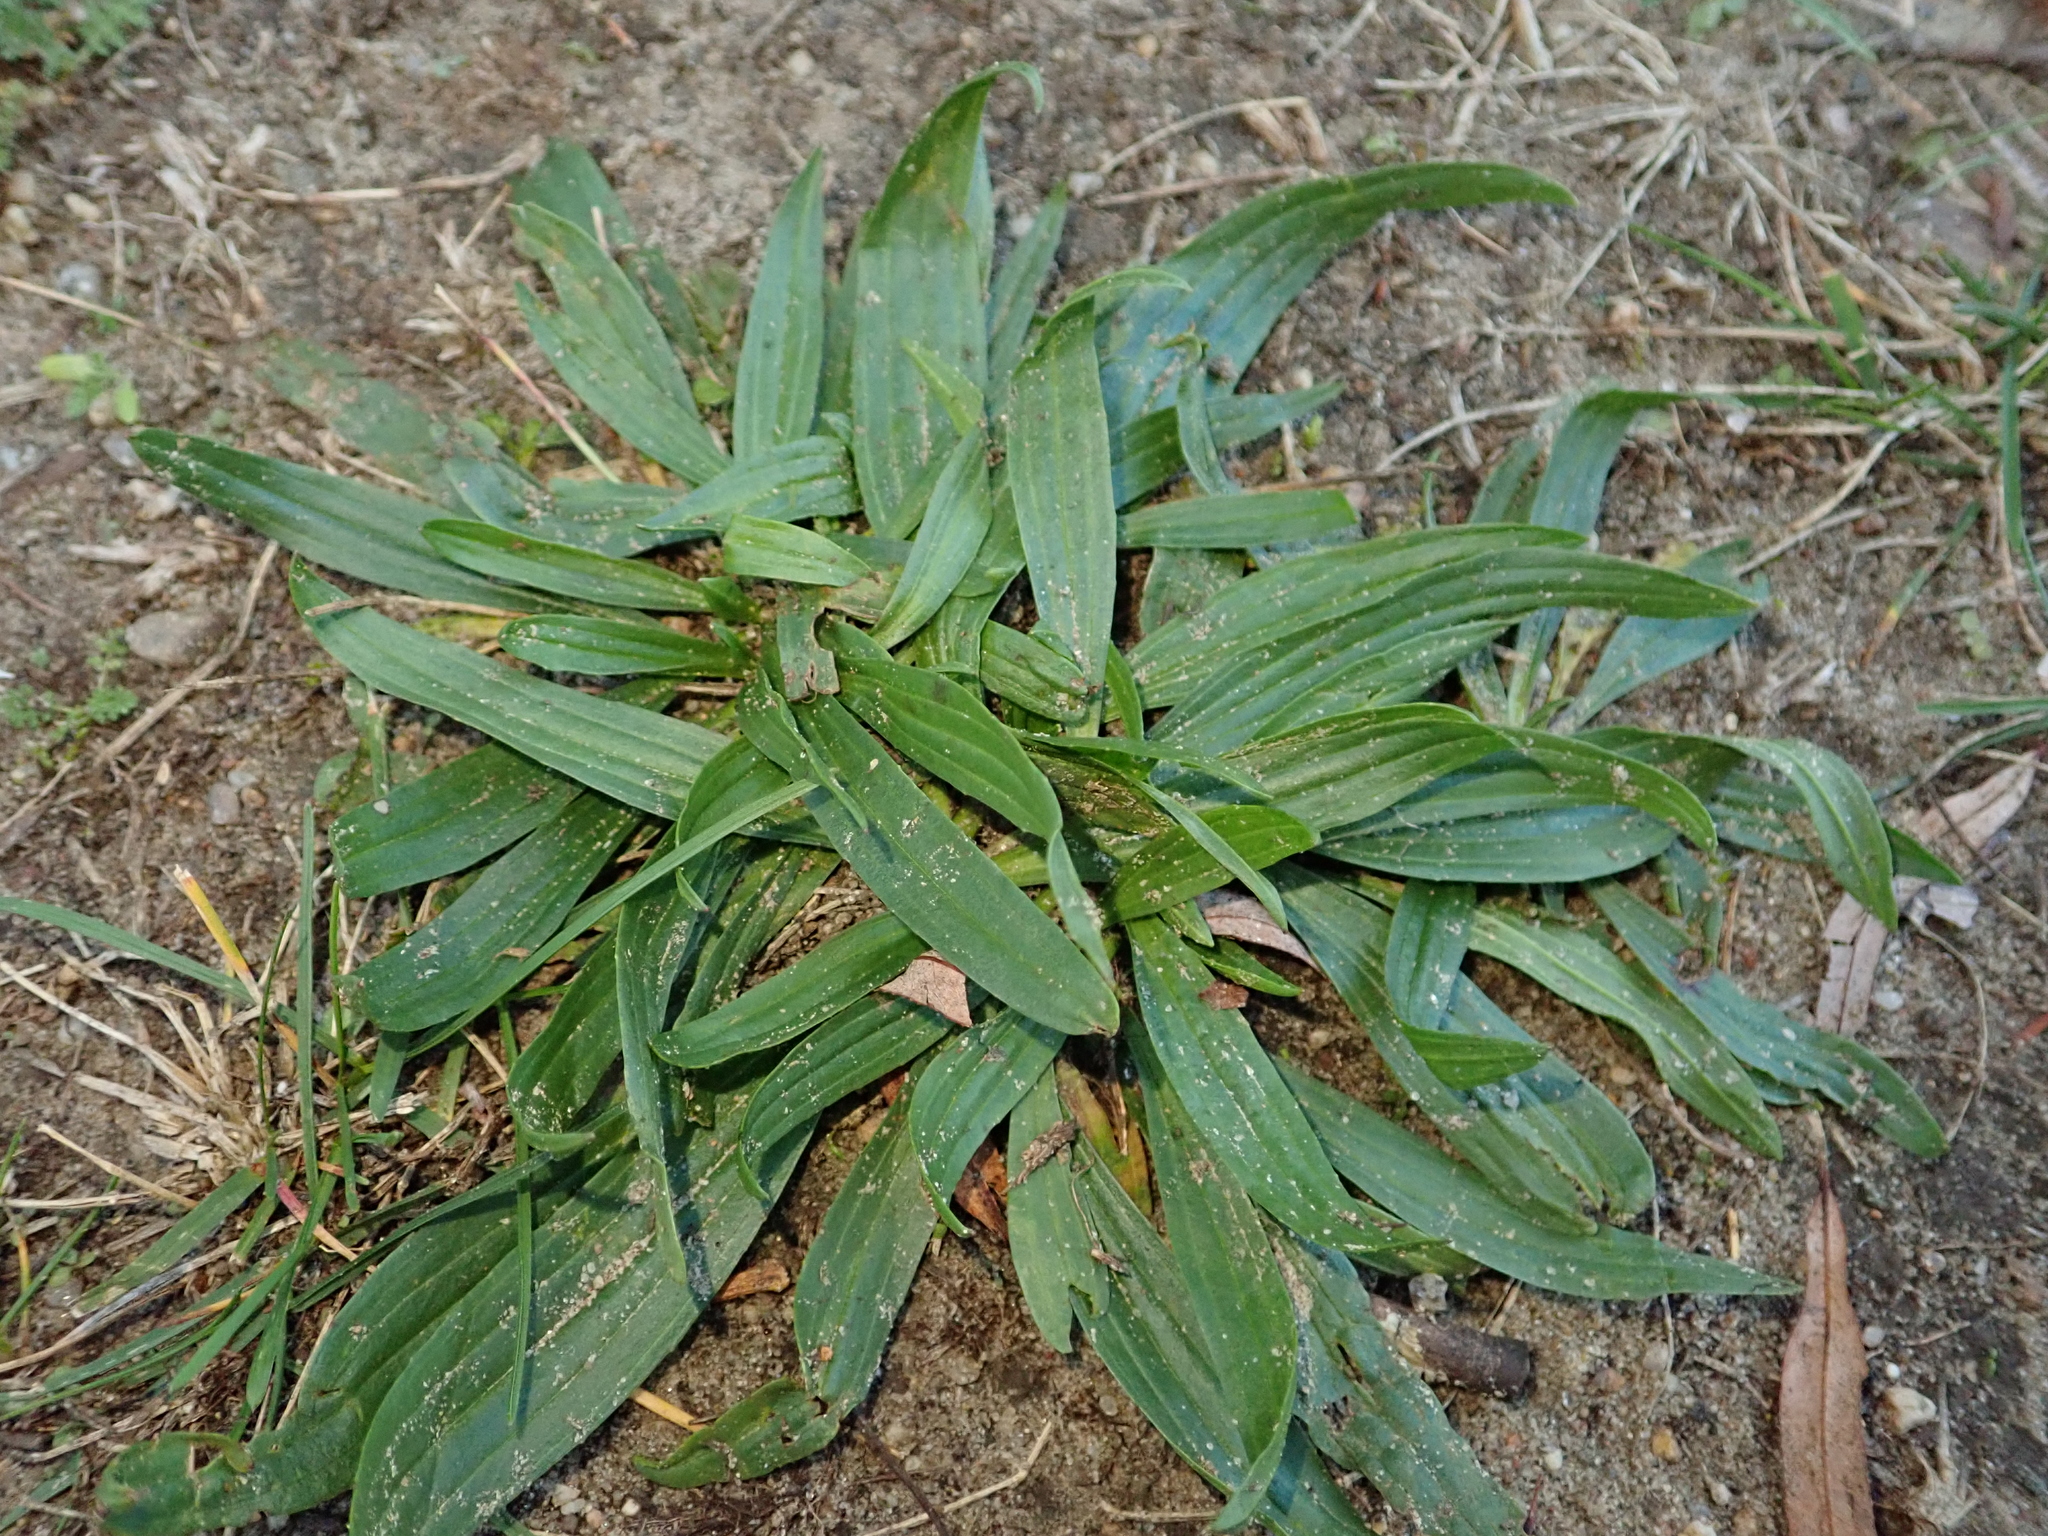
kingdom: Plantae
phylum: Tracheophyta
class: Magnoliopsida
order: Lamiales
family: Plantaginaceae
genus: Plantago
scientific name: Plantago lanceolata
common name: Ribwort plantain
